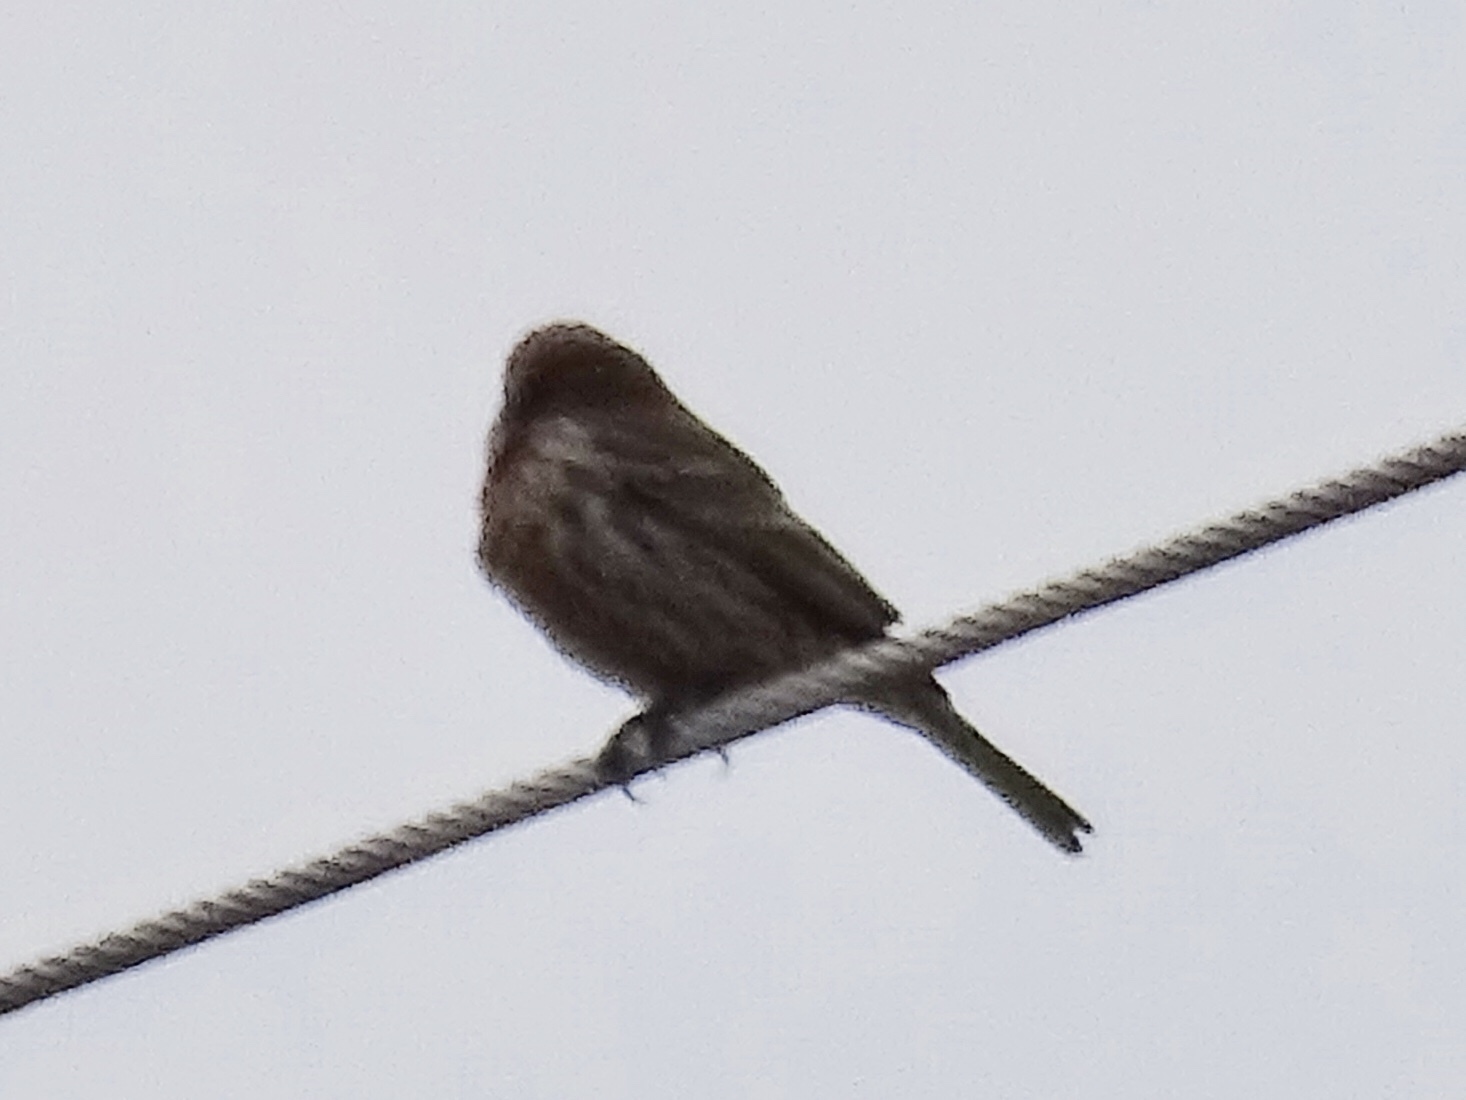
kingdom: Animalia
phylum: Chordata
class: Aves
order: Passeriformes
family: Fringillidae
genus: Haemorhous
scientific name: Haemorhous mexicanus
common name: House finch
